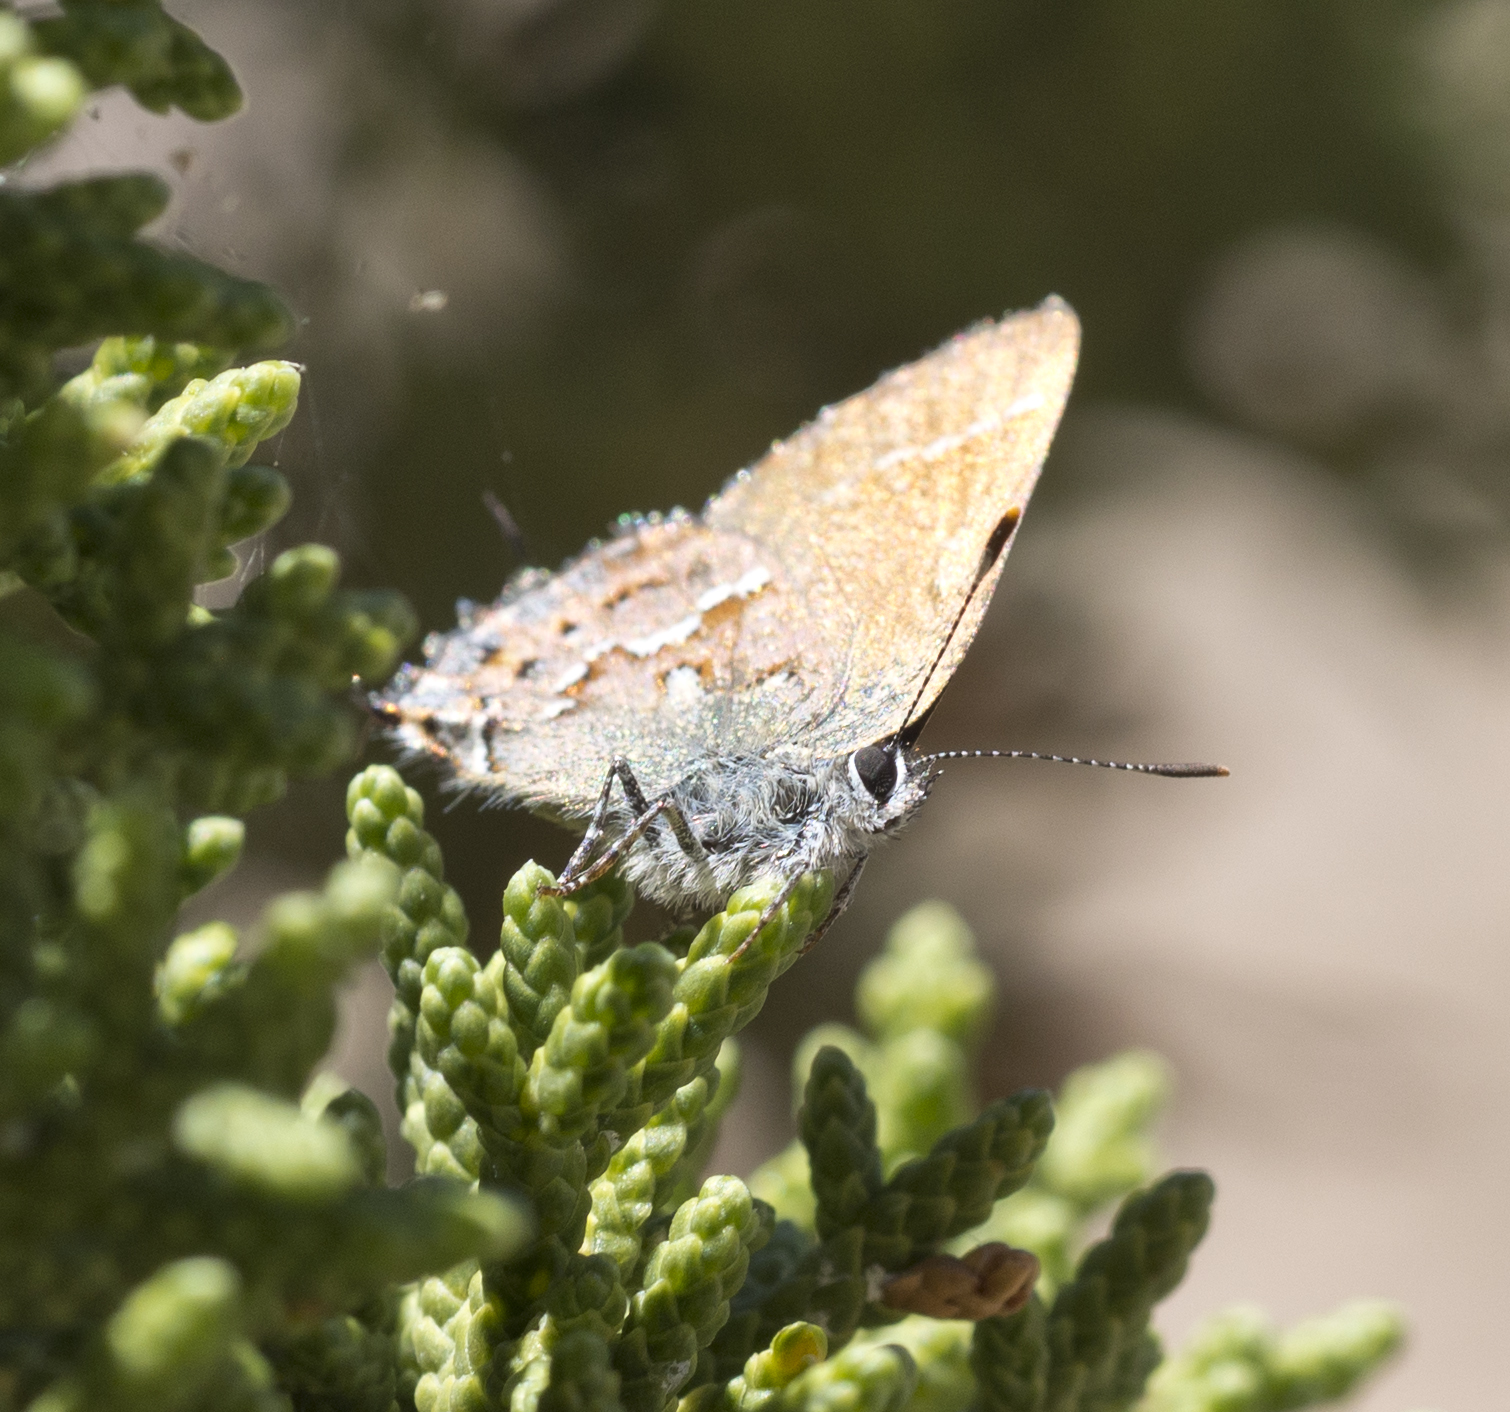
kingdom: Animalia
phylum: Arthropoda
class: Insecta
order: Lepidoptera
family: Lycaenidae
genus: Callophrys
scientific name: Callophrys
